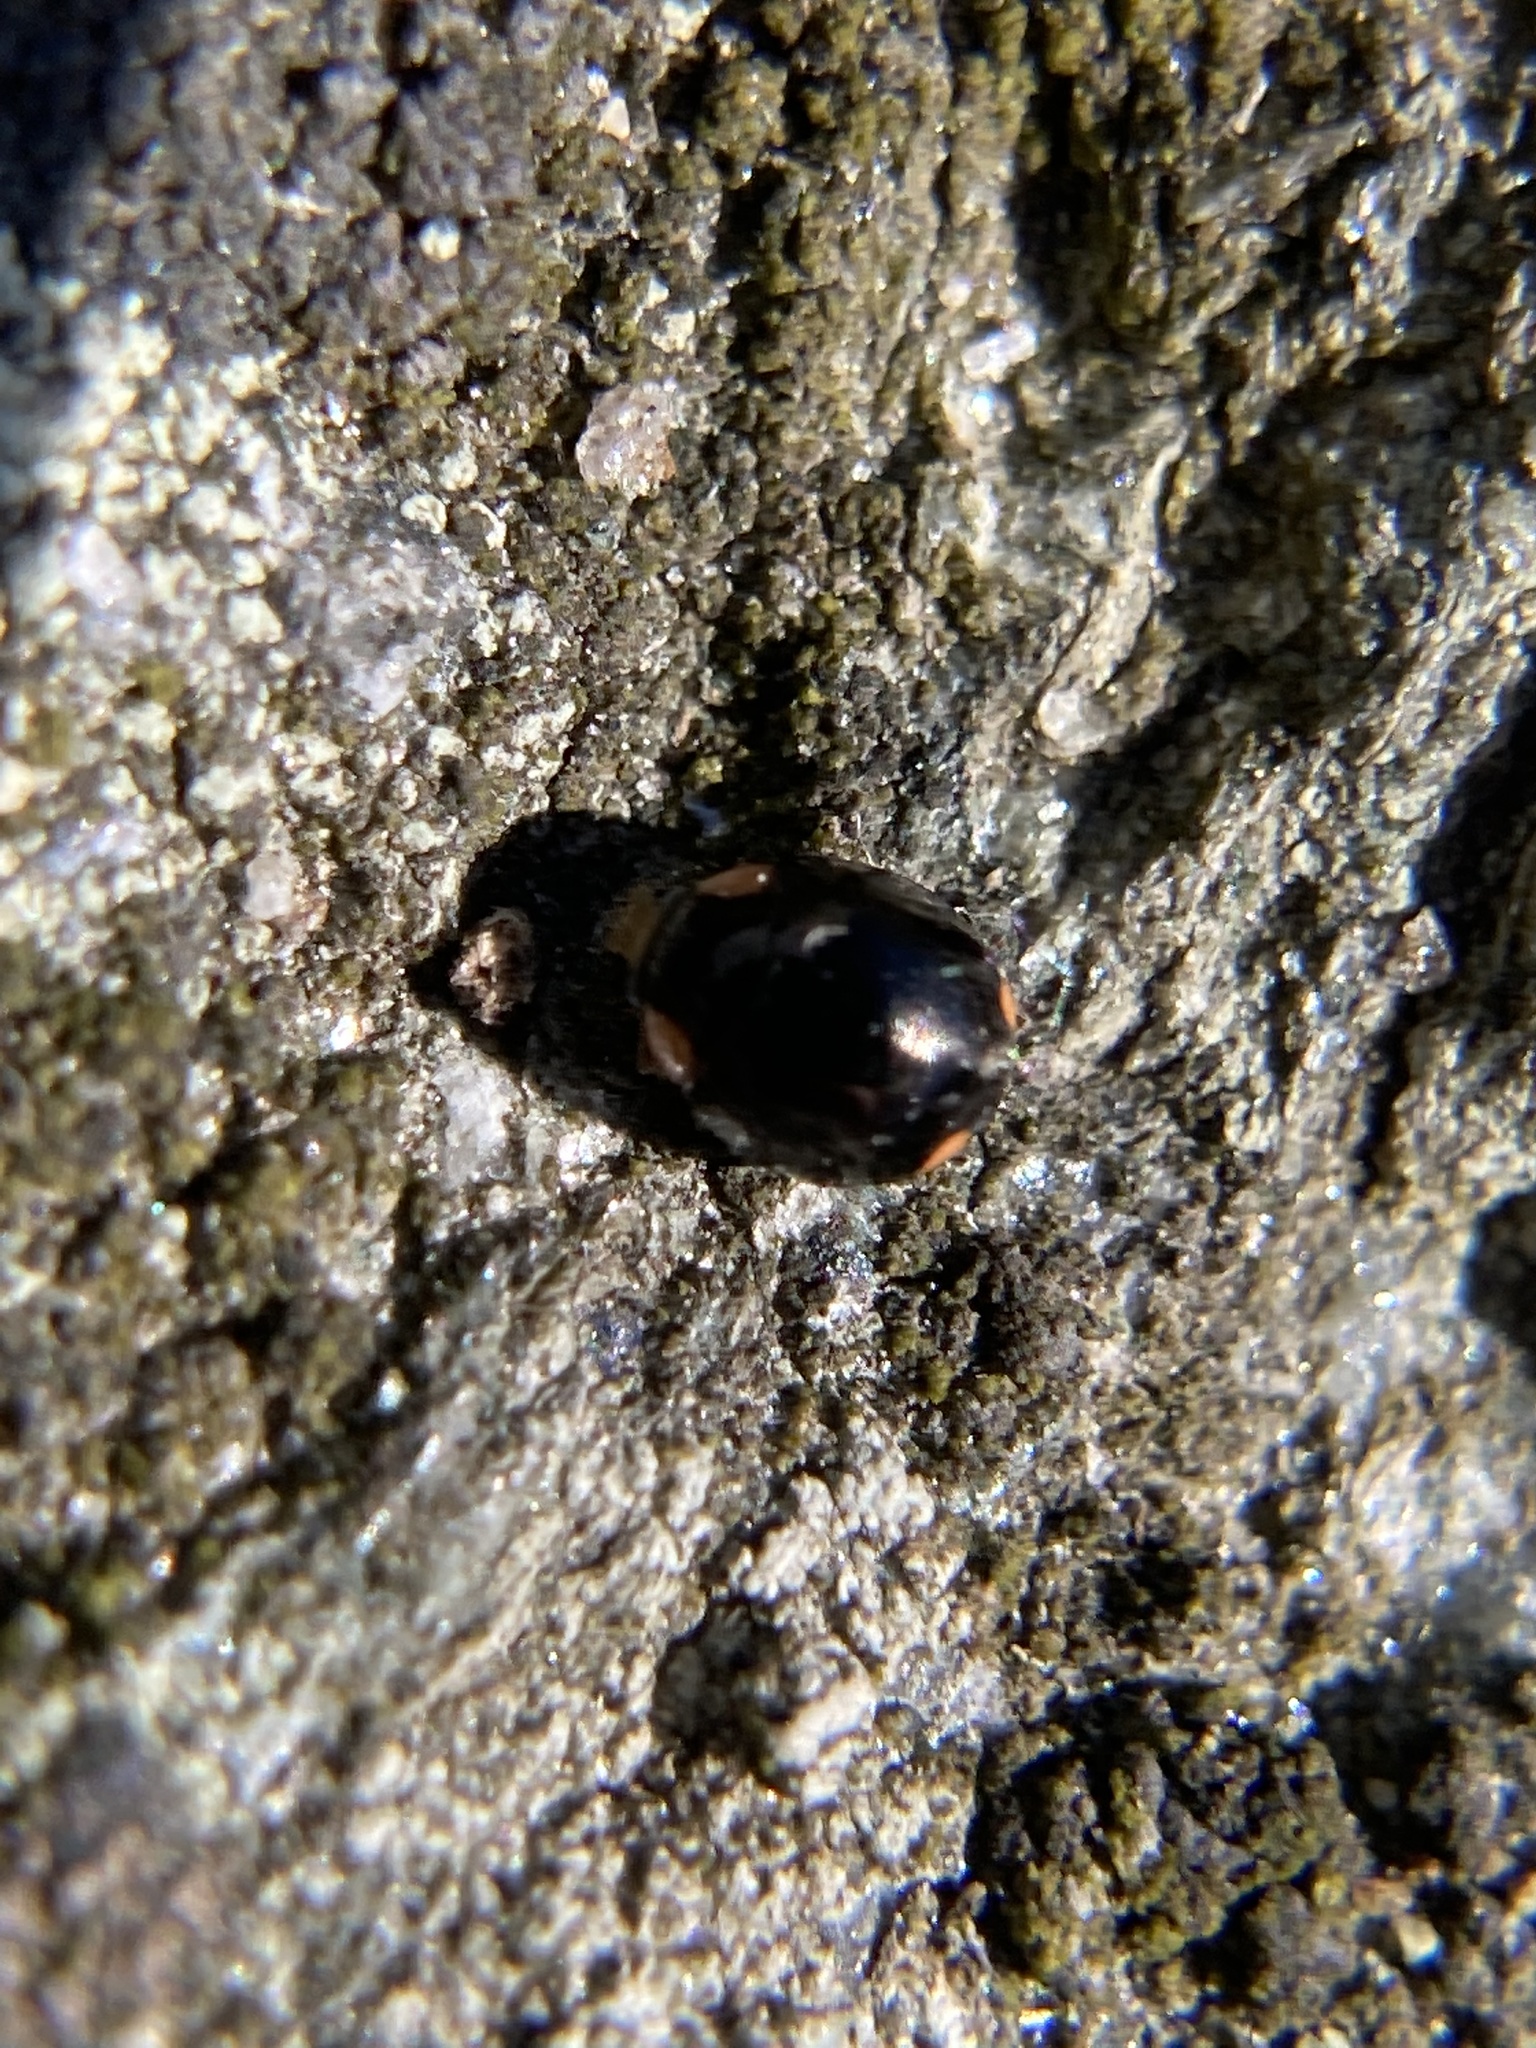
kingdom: Animalia
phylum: Arthropoda
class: Insecta
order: Coleoptera
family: Coccinellidae
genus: Hyperaspis
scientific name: Hyperaspis bigeminata
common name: Bigeminate sigil lady beetle
